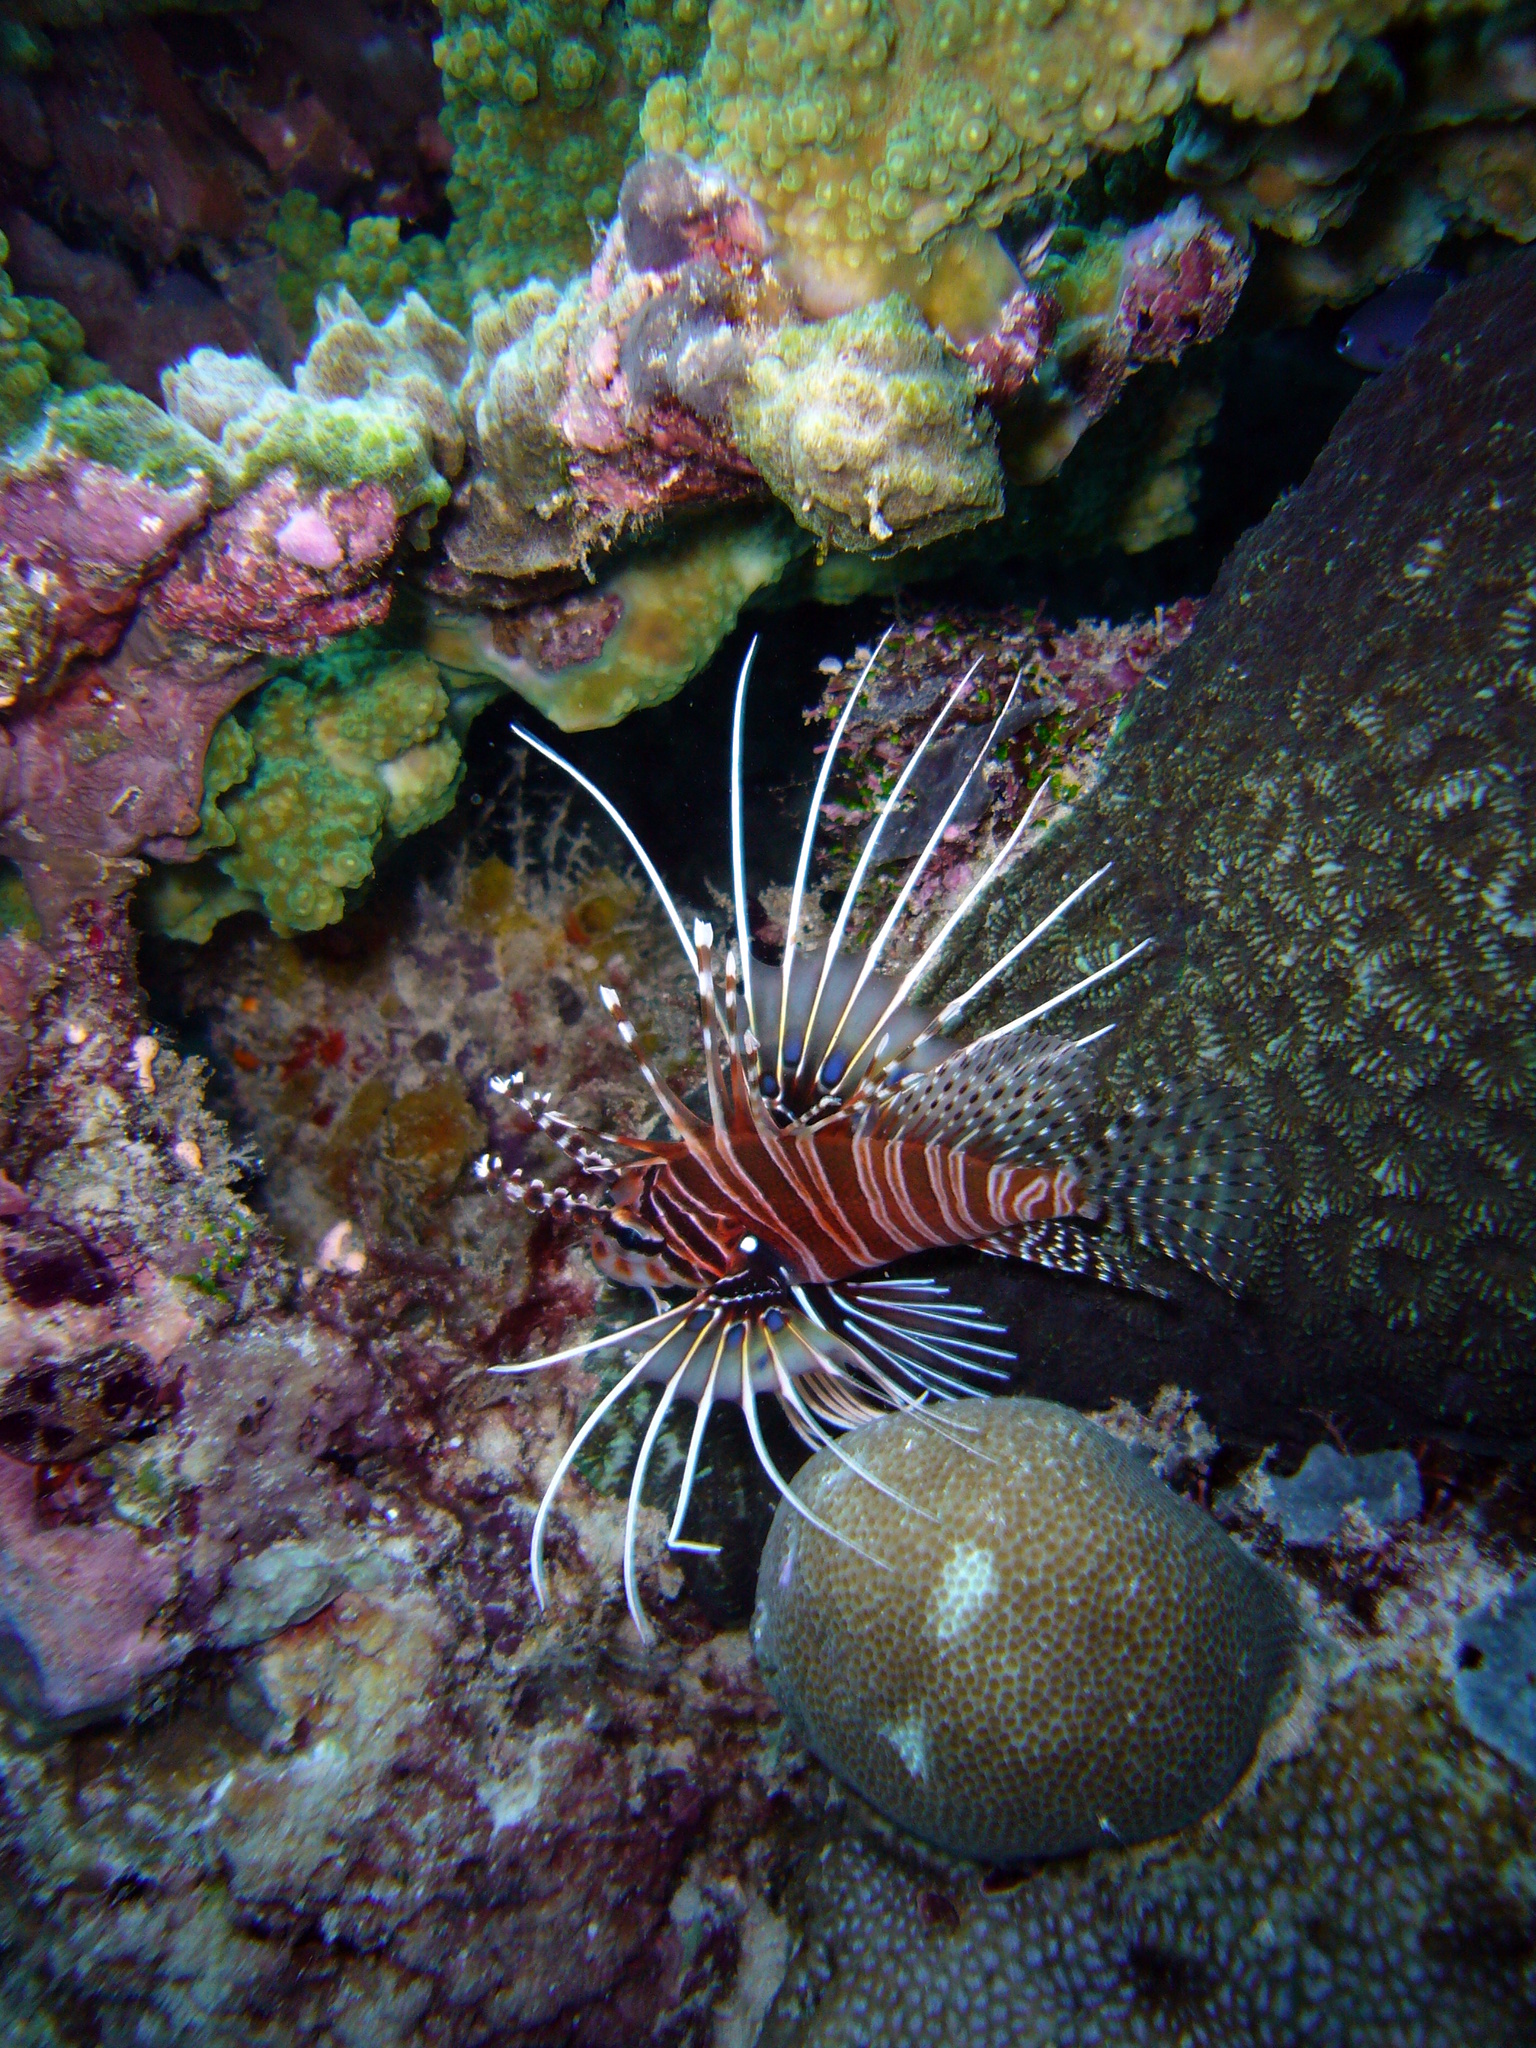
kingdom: Animalia
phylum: Chordata
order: Scorpaeniformes
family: Scorpaenidae
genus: Pterois
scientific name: Pterois antennata
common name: Spotfin lionfish
